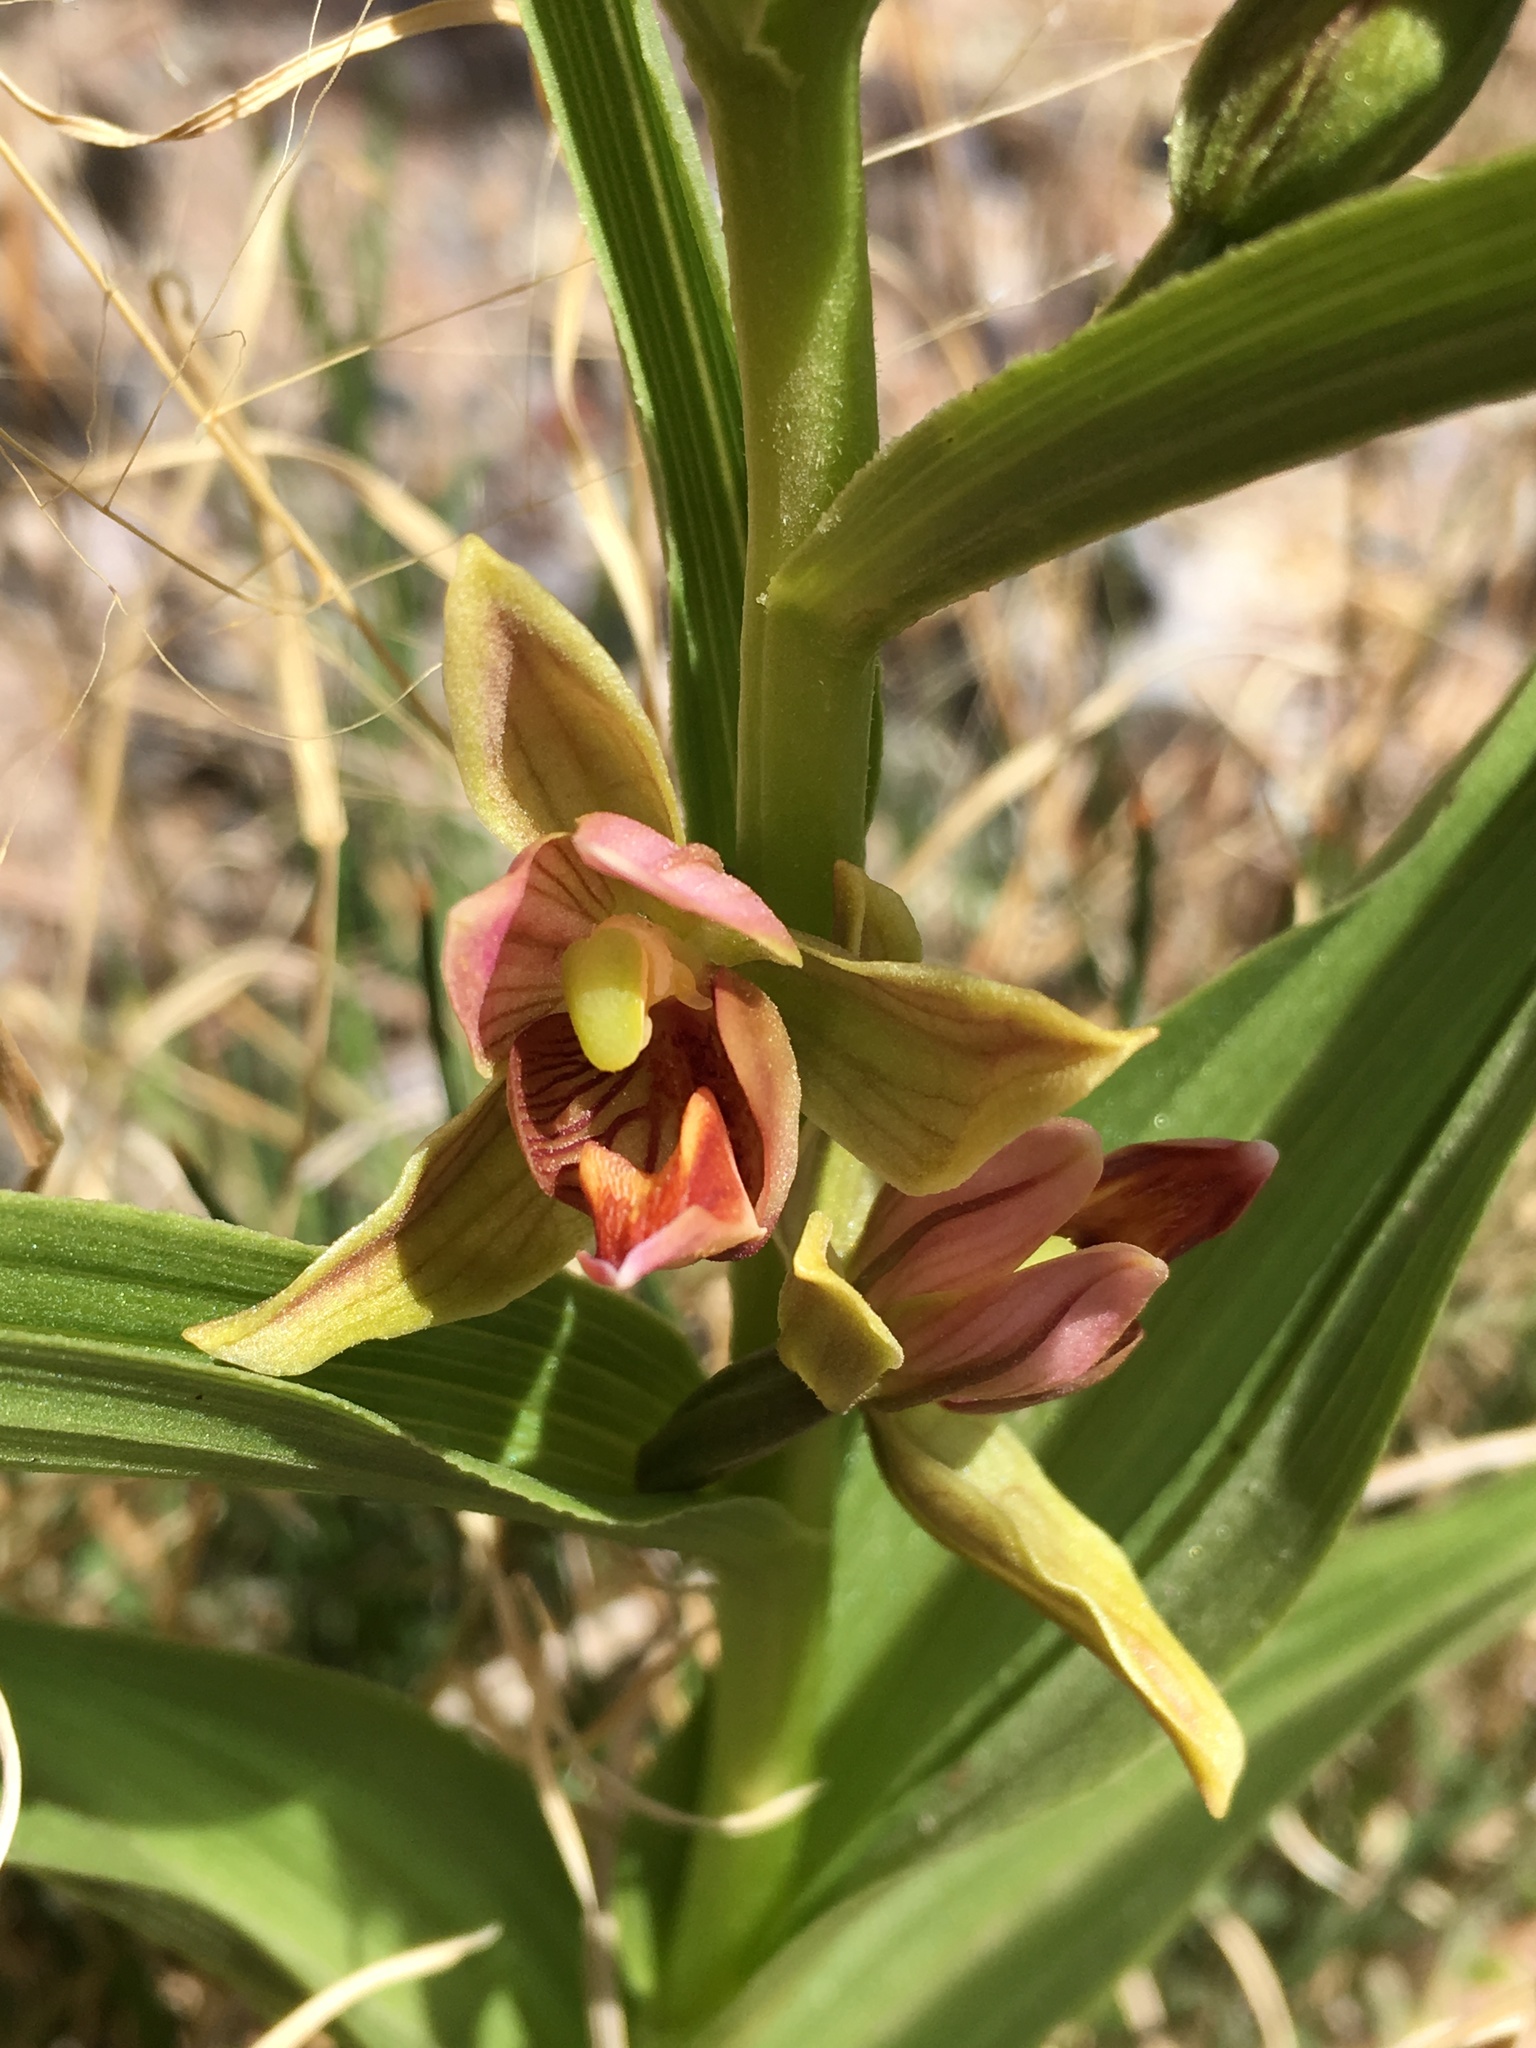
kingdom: Plantae
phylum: Tracheophyta
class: Liliopsida
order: Asparagales
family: Orchidaceae
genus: Epipactis
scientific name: Epipactis gigantea
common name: Chatterbox
